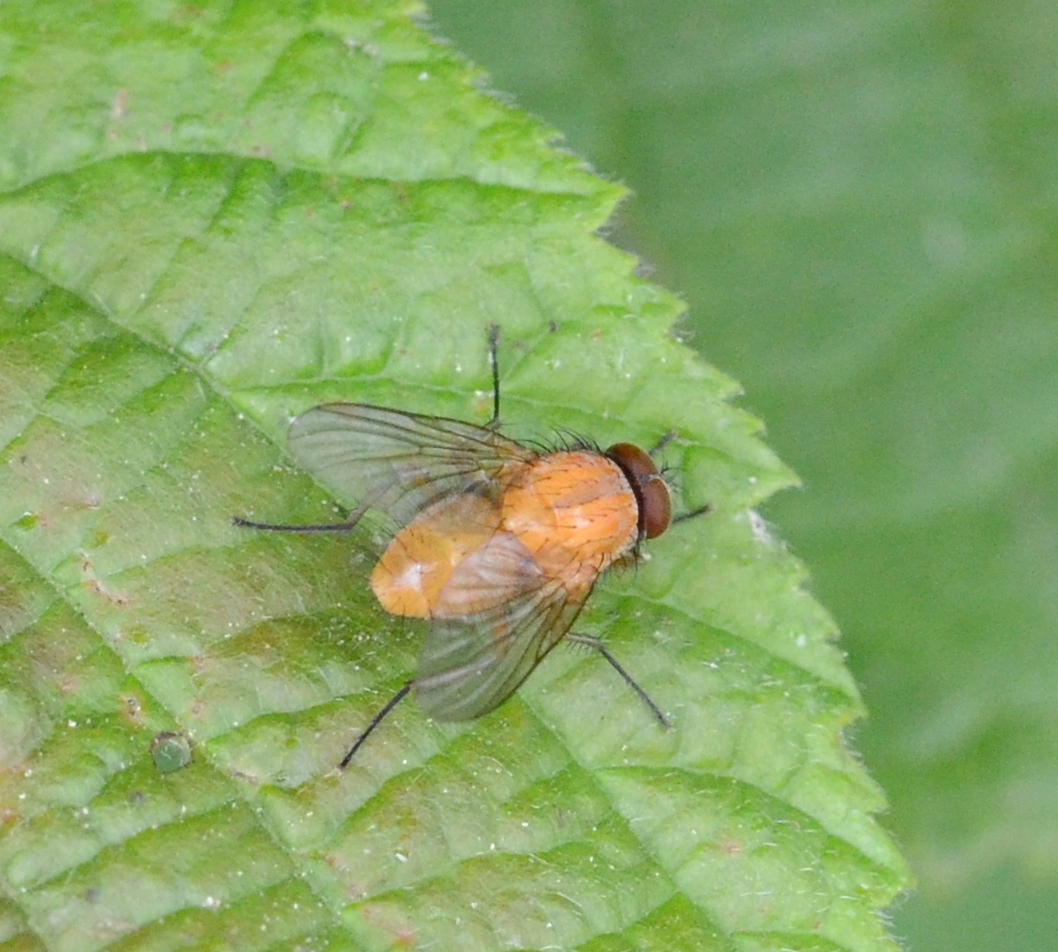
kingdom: Animalia
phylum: Arthropoda
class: Insecta
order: Diptera
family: Muscidae
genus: Phaonia
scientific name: Phaonia pallida
